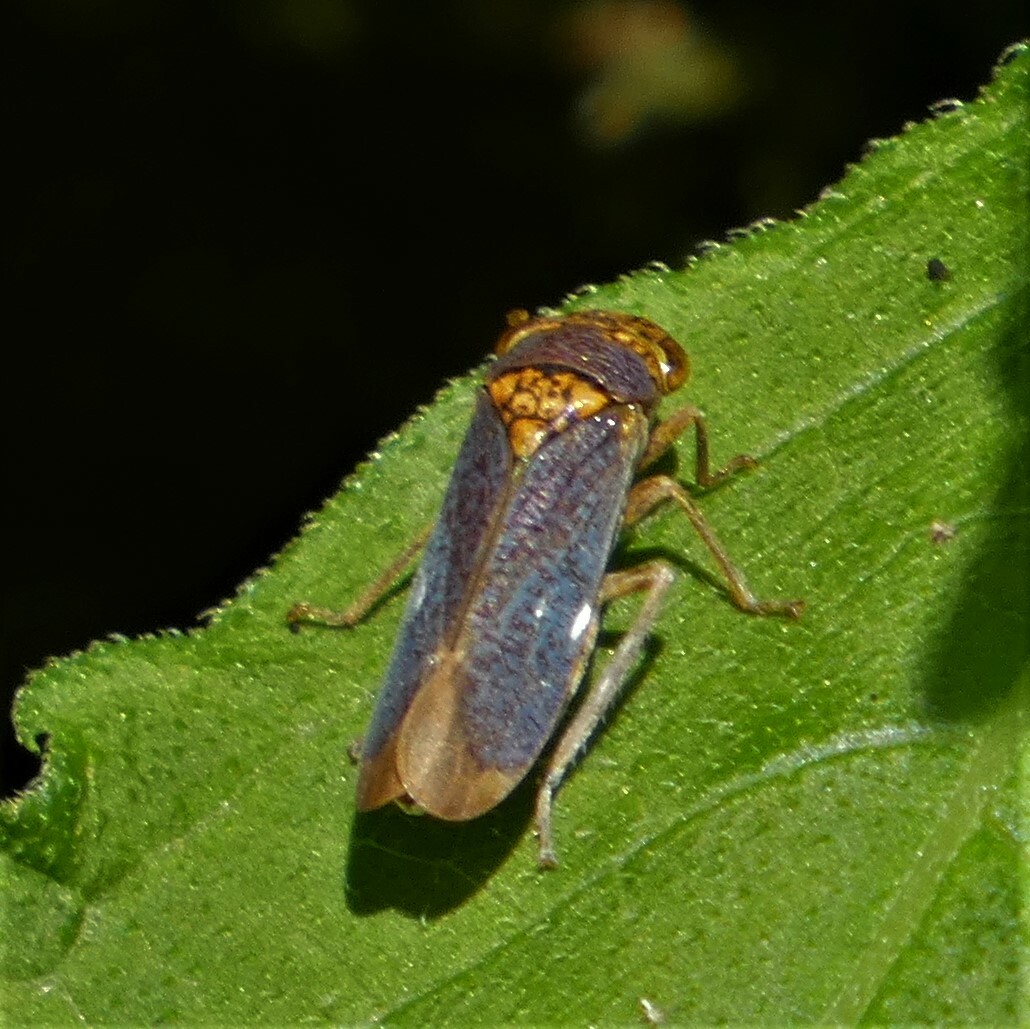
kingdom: Animalia
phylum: Arthropoda
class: Insecta
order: Hemiptera
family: Cicadellidae
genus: Oncometopia
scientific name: Oncometopia orbona
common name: Broad-headed sharpshooter
